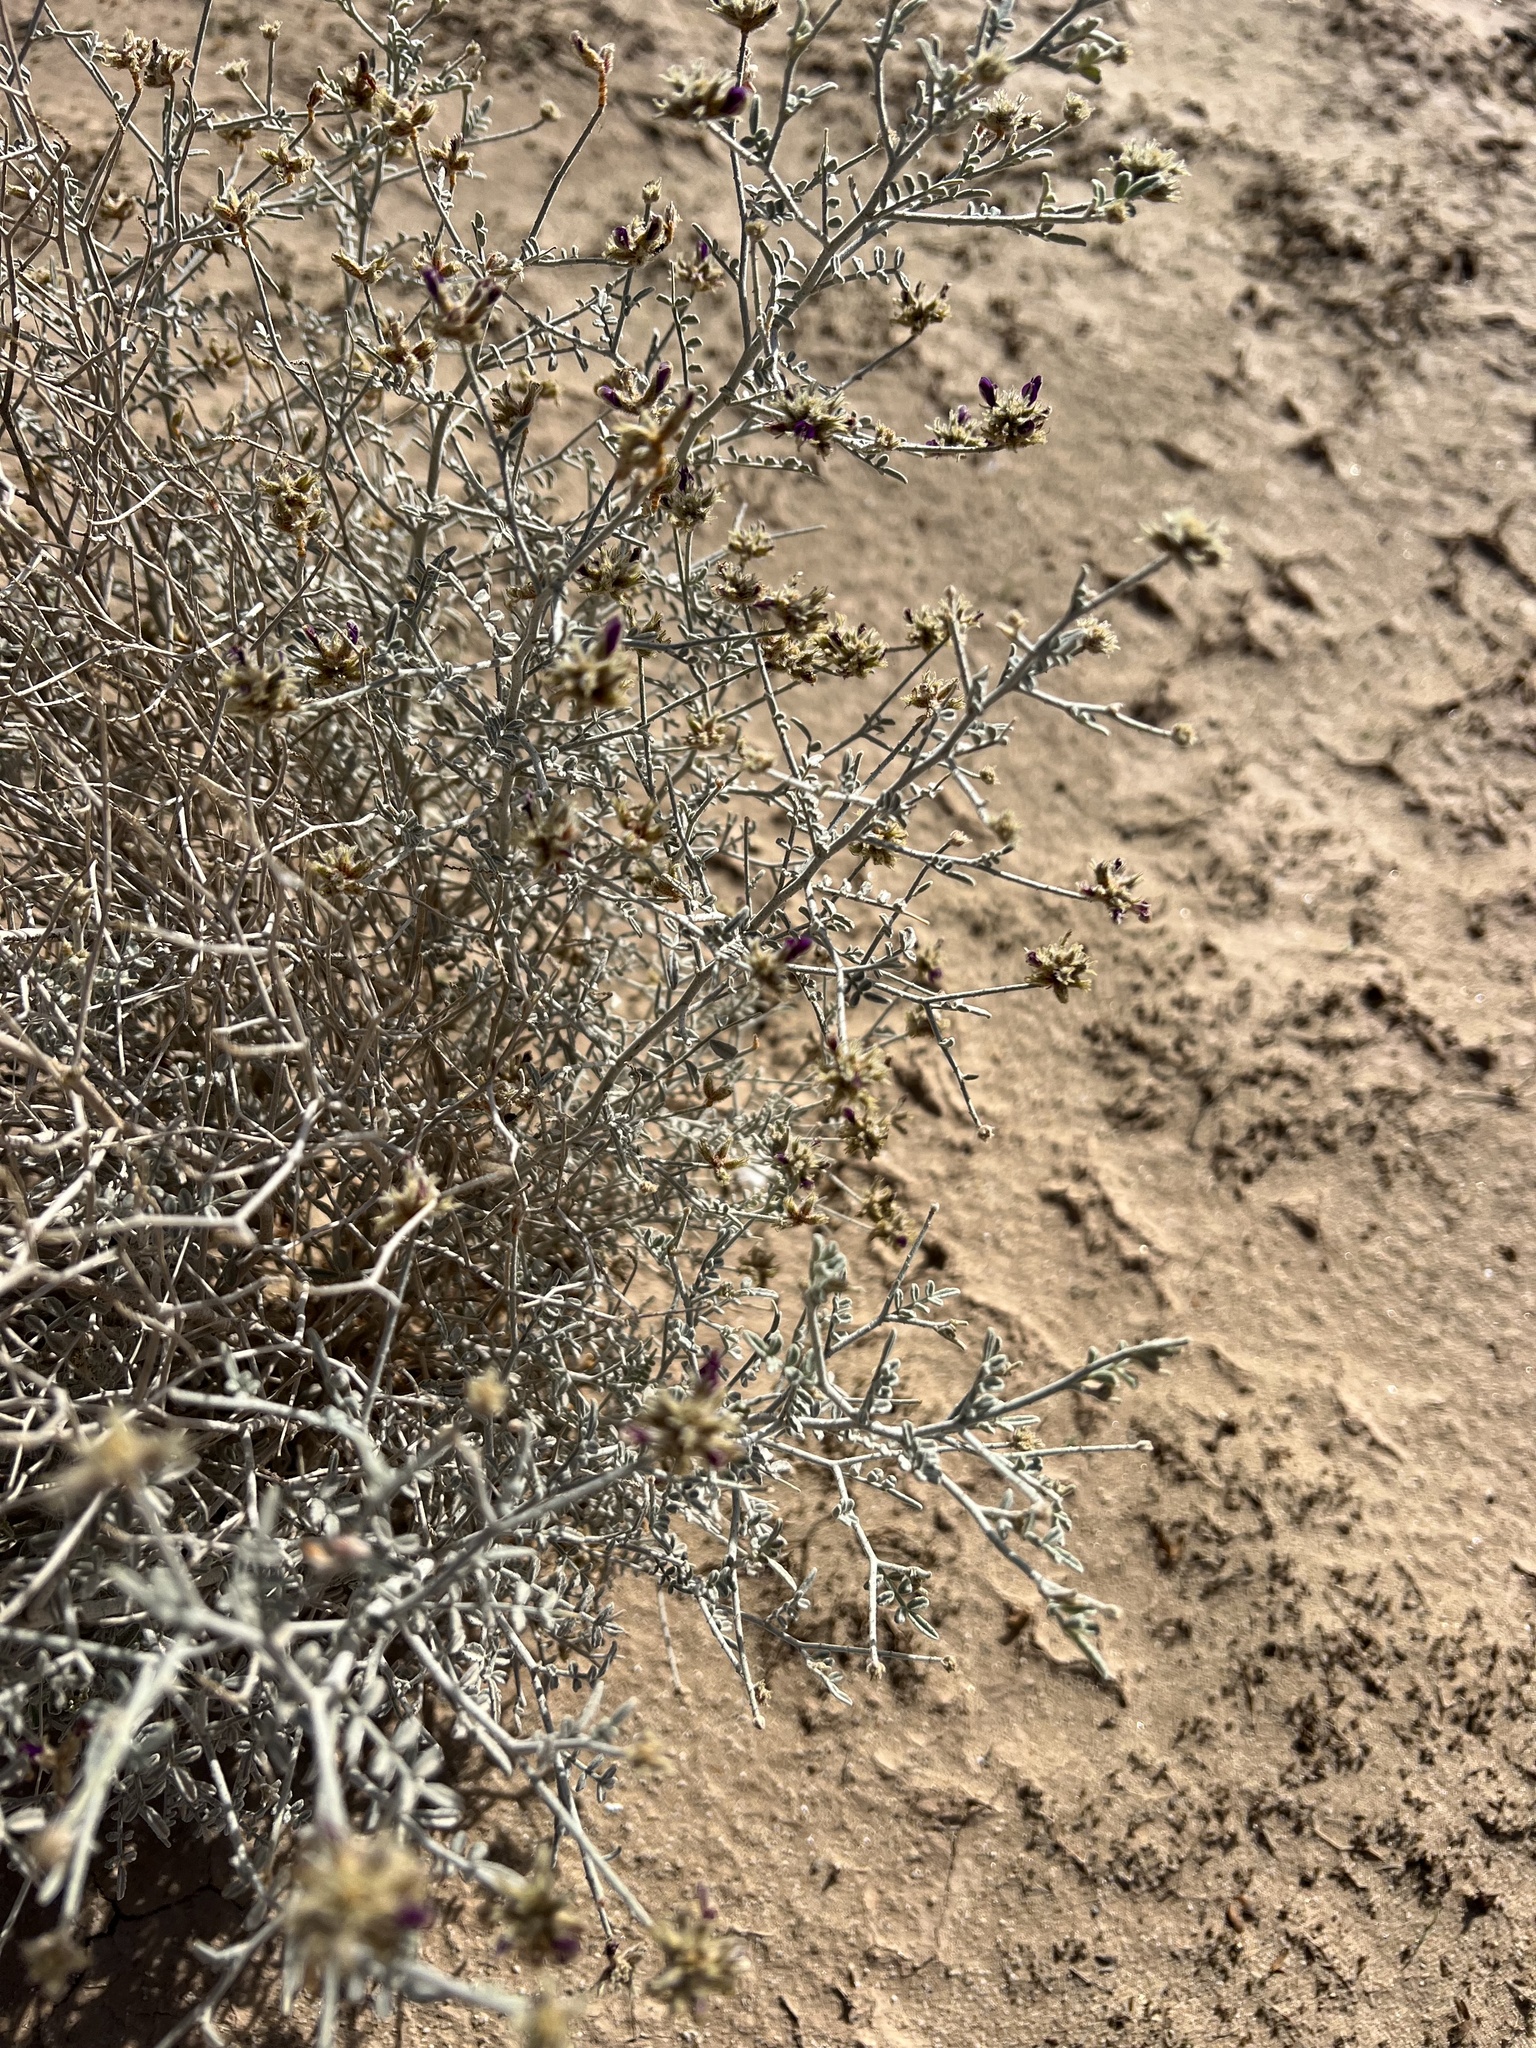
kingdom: Plantae
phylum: Tracheophyta
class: Magnoliopsida
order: Fabales
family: Fabaceae
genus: Psorothamnus
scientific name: Psorothamnus emoryi
